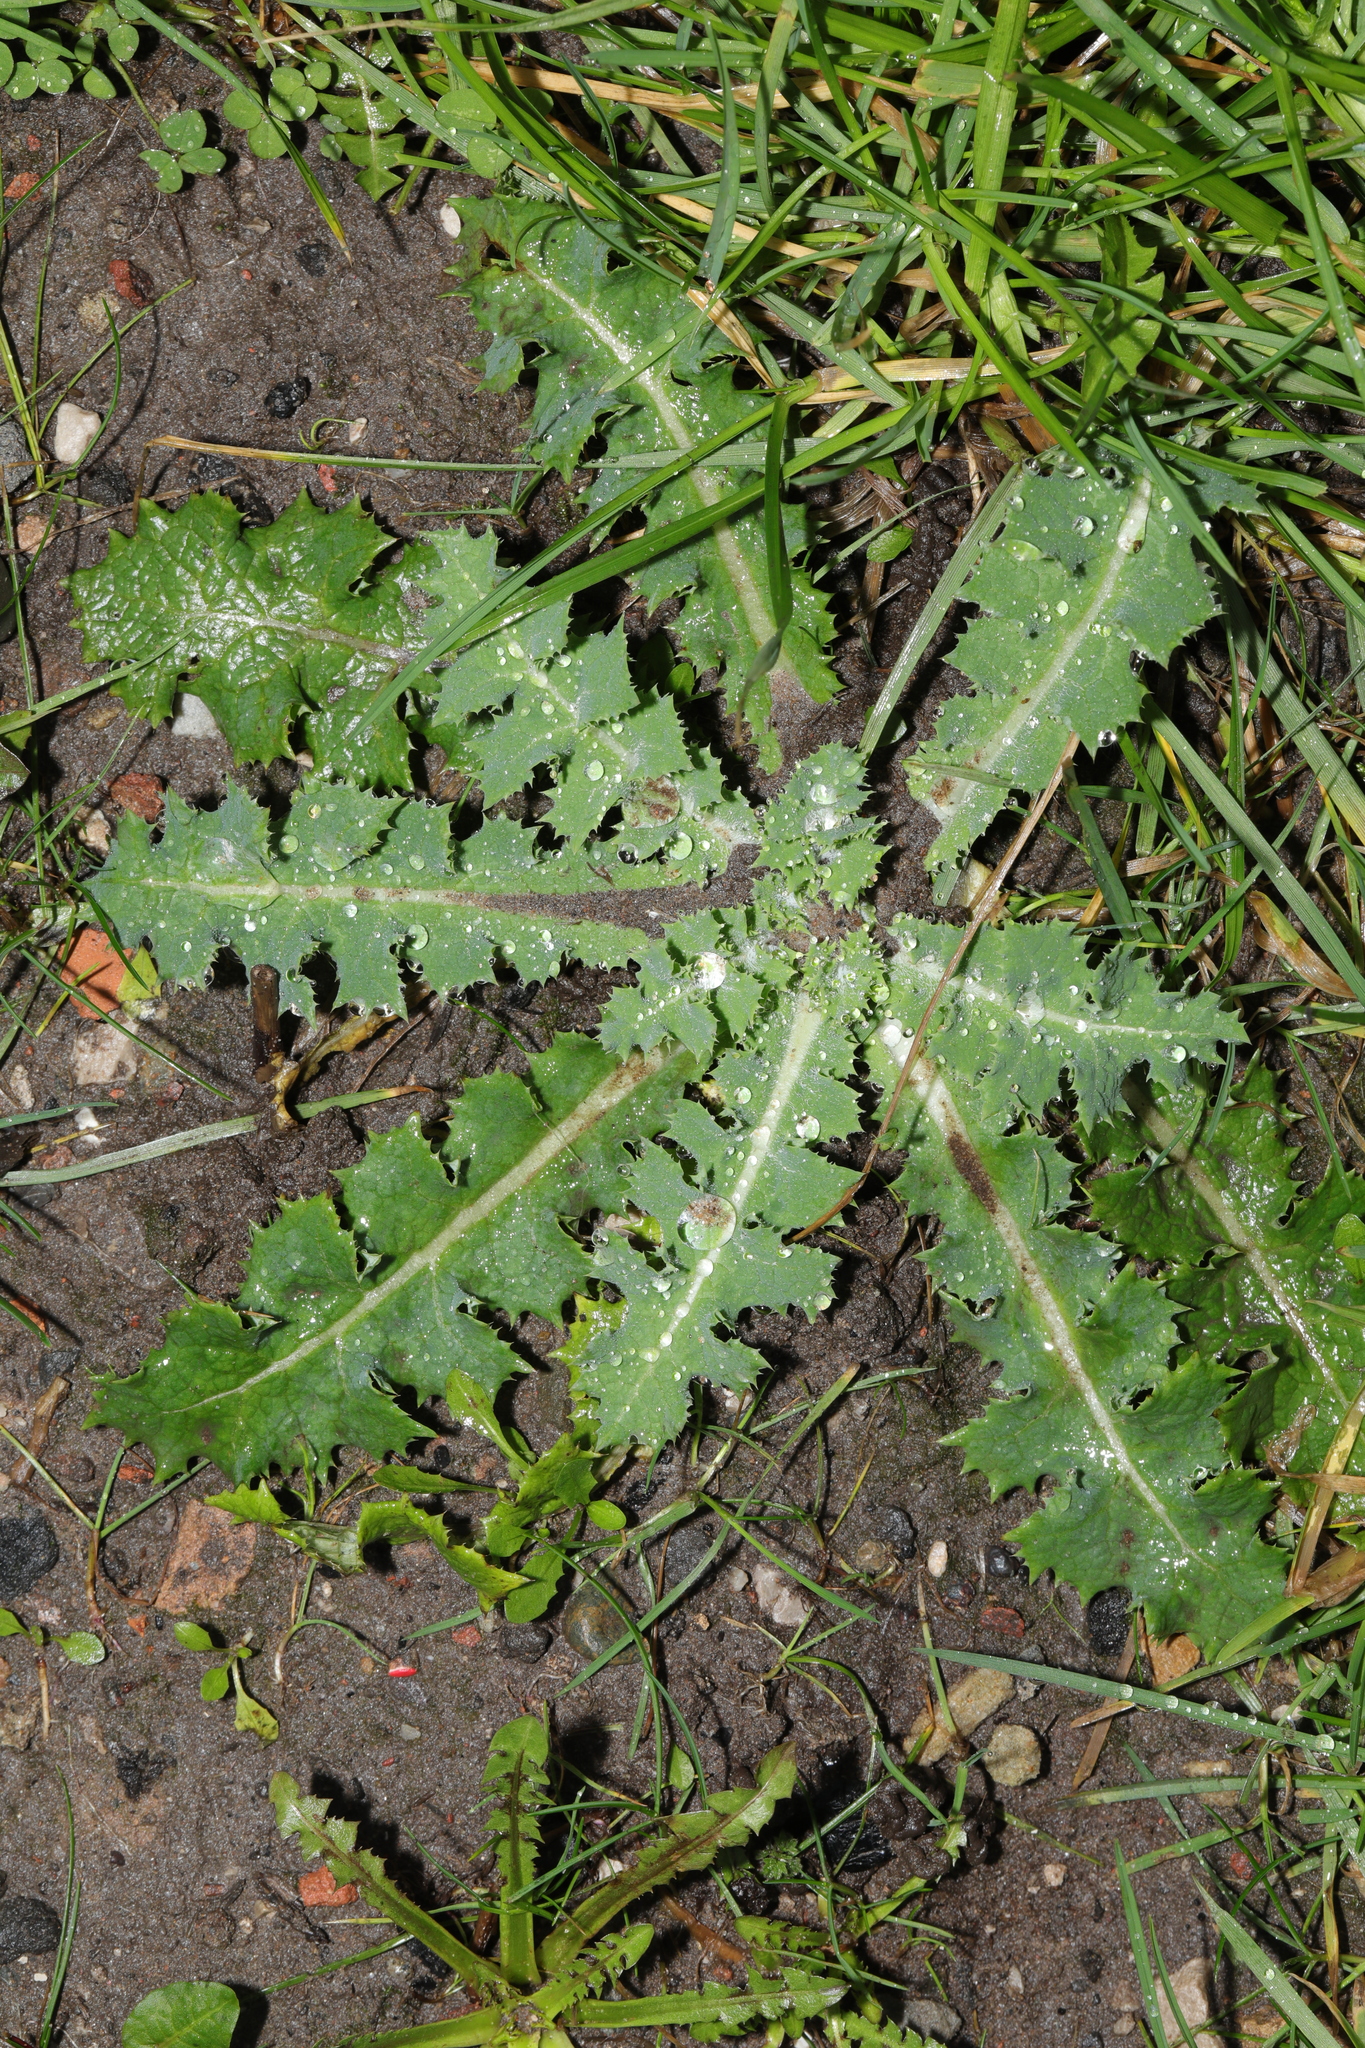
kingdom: Plantae
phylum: Tracheophyta
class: Magnoliopsida
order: Asterales
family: Asteraceae
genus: Sonchus
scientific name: Sonchus asper
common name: Prickly sow-thistle
